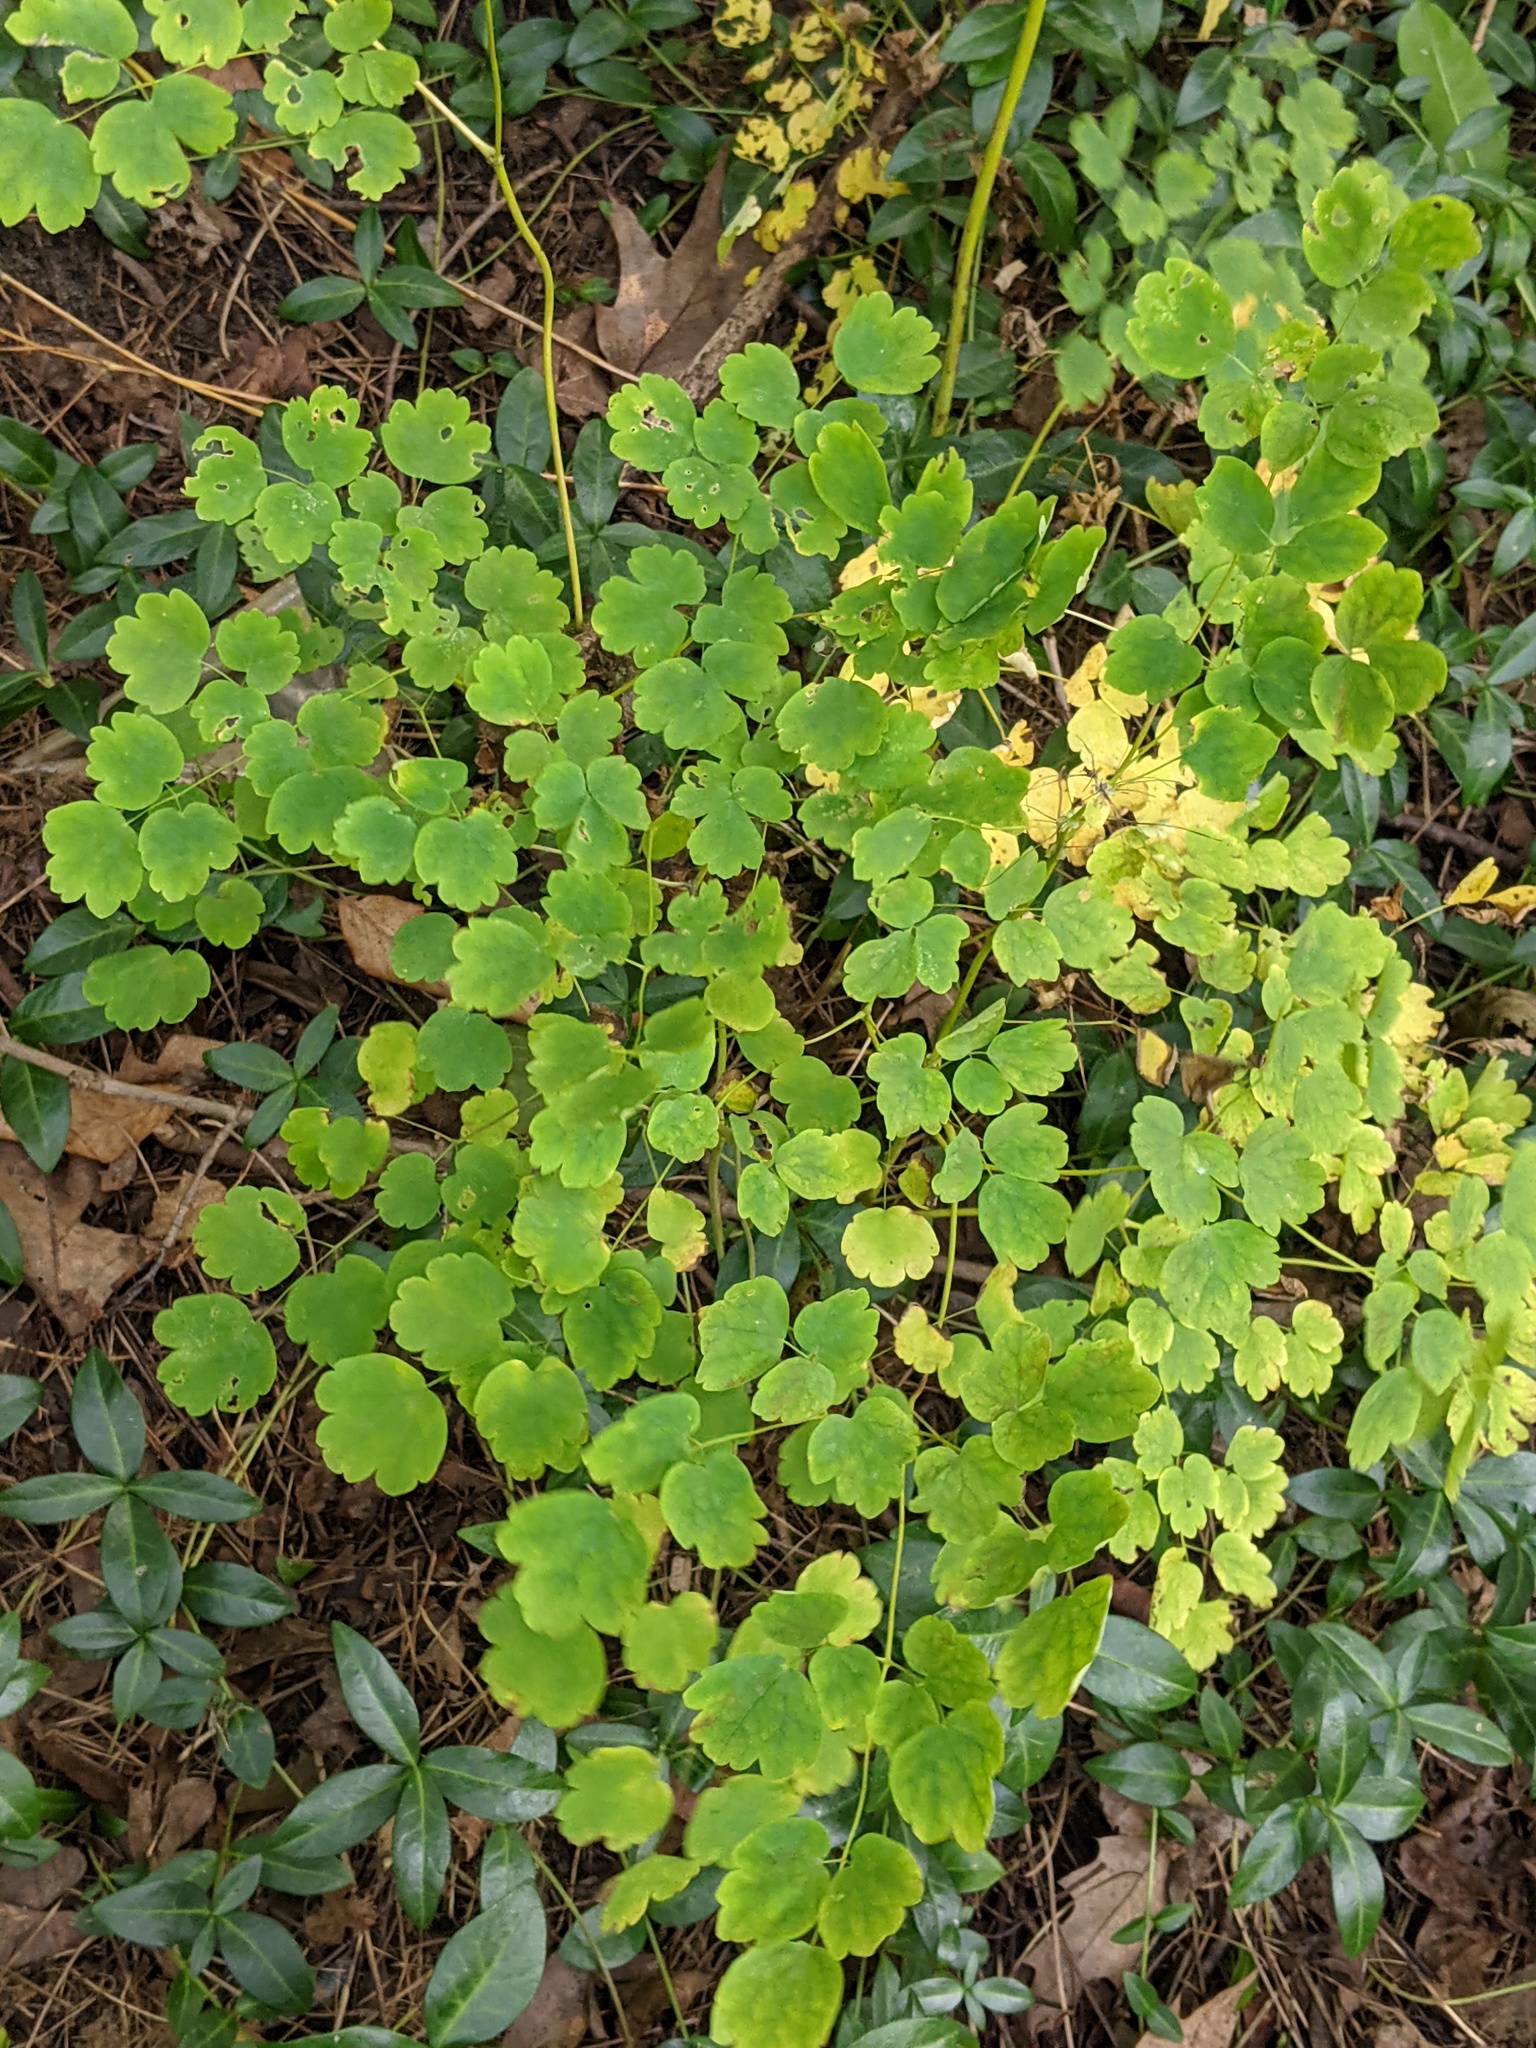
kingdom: Plantae
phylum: Tracheophyta
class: Magnoliopsida
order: Ranunculales
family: Ranunculaceae
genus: Thalictrum
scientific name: Thalictrum dioicum
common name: Early meadow-rue
